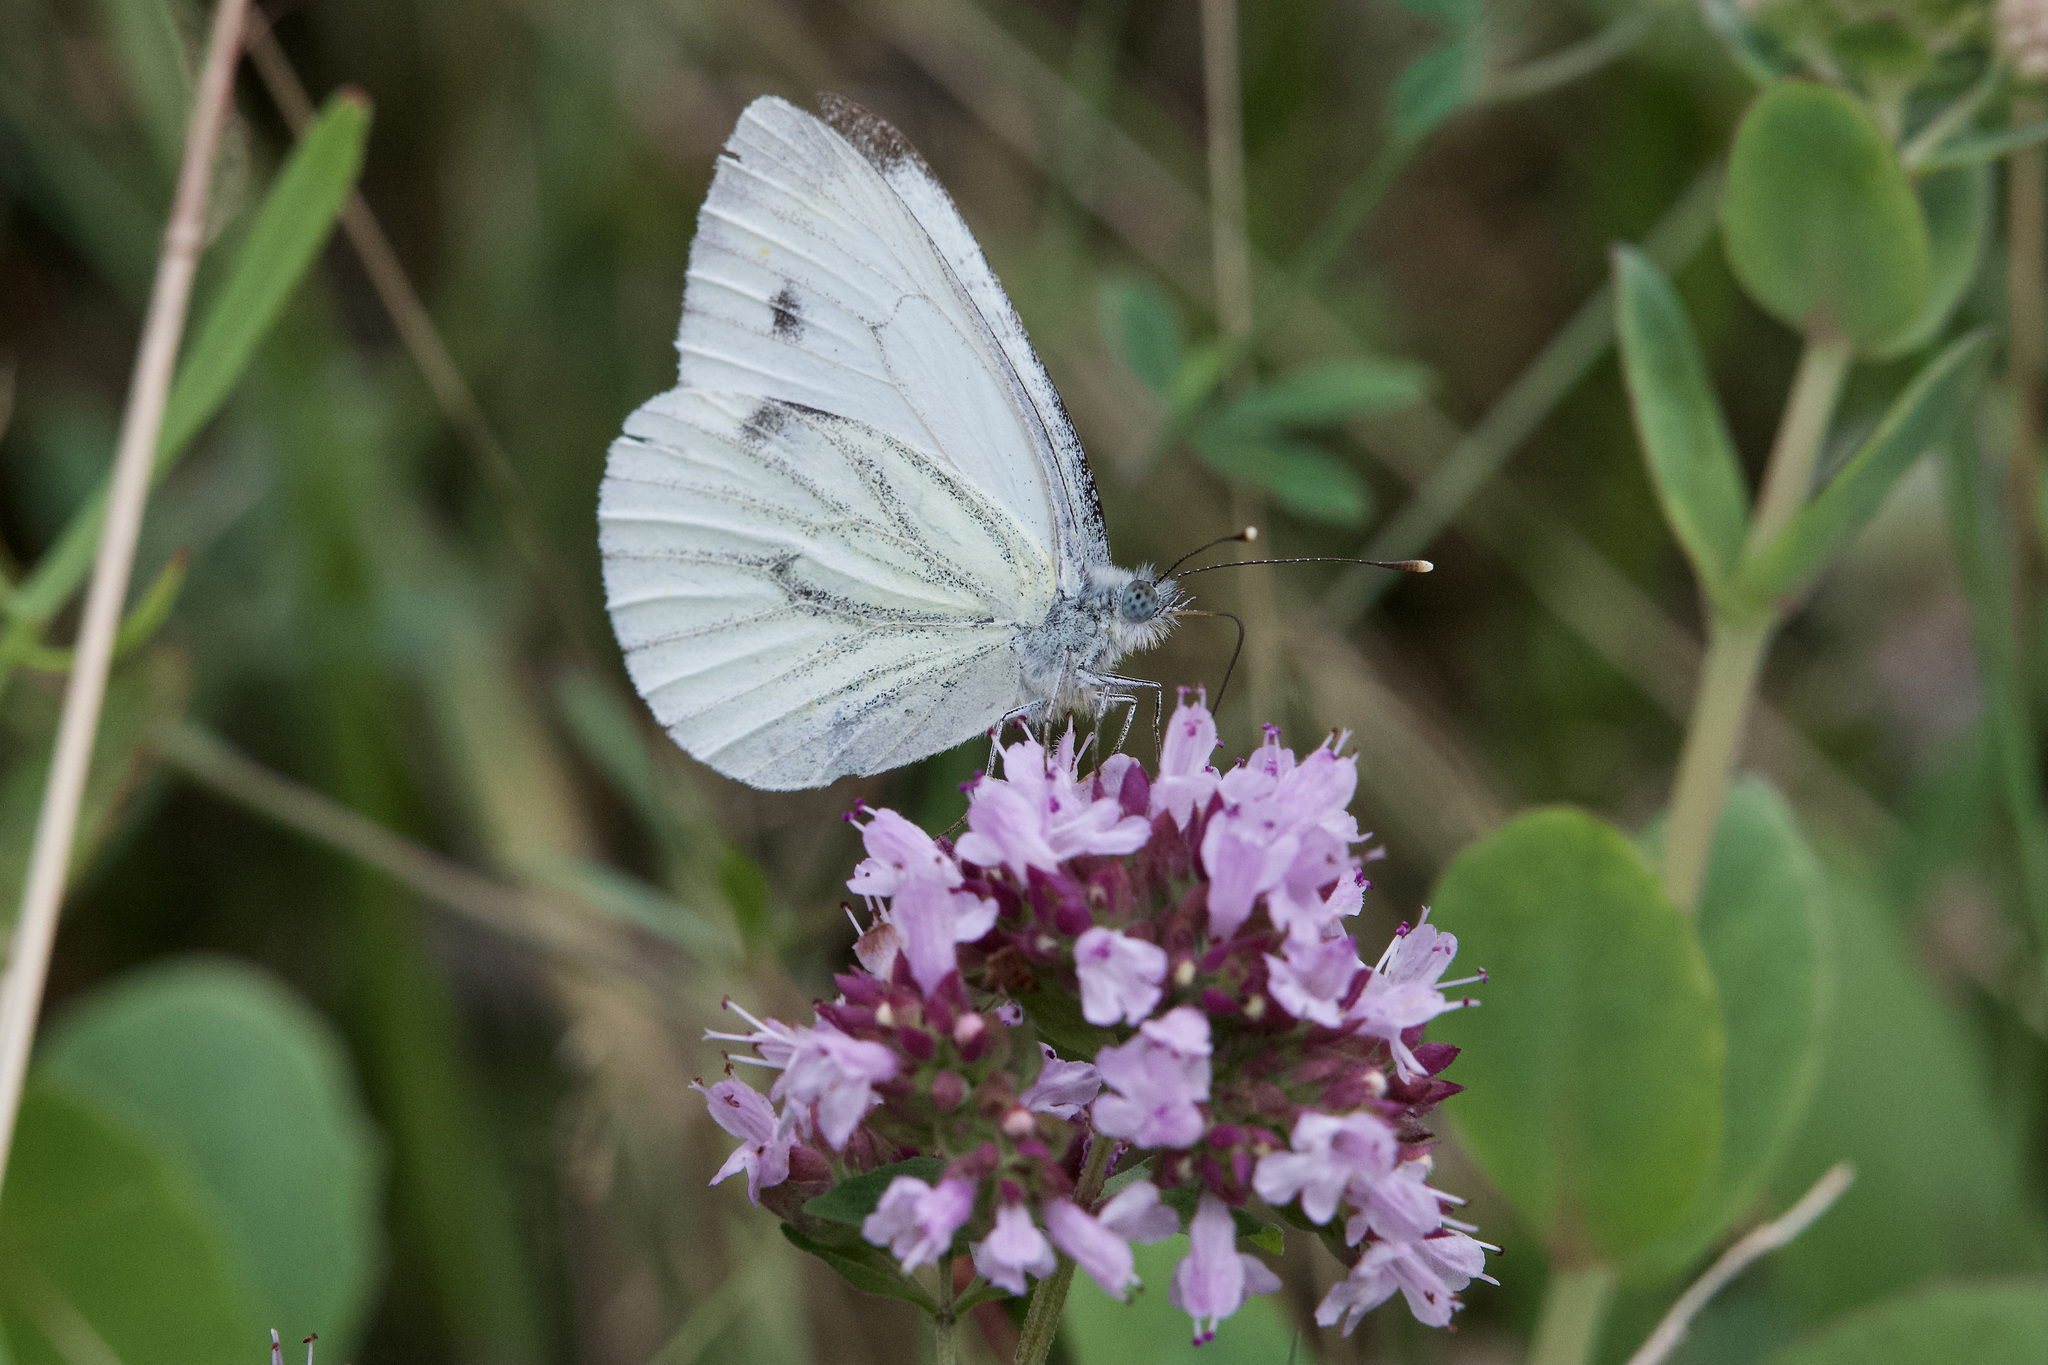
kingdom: Animalia
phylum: Arthropoda
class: Insecta
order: Lepidoptera
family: Pieridae
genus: Pieris
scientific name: Pieris napi
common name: Green-veined white
